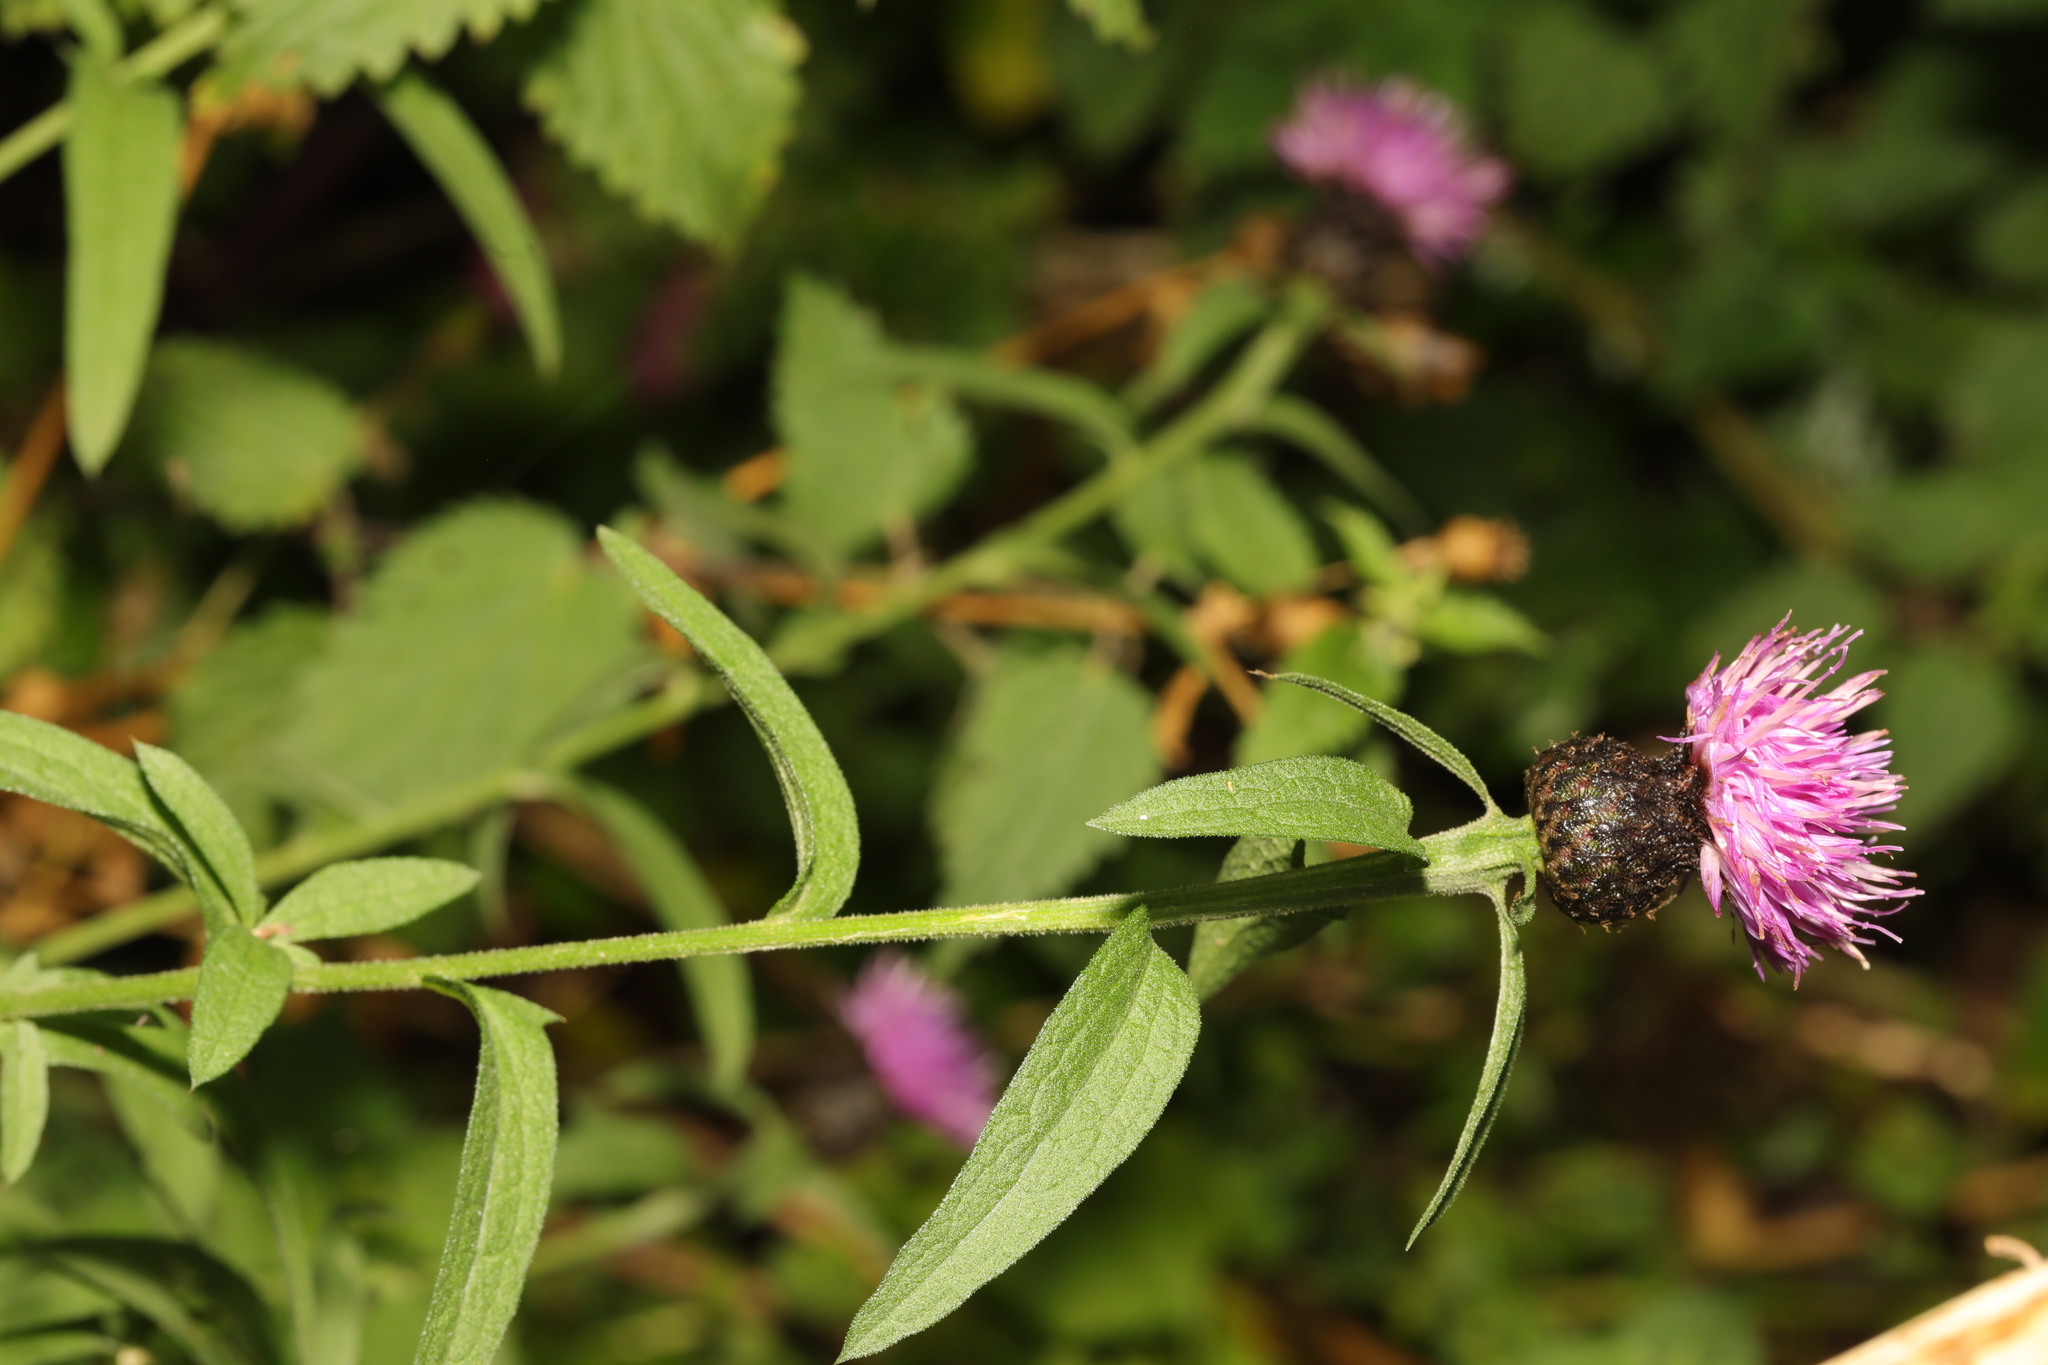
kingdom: Plantae
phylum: Tracheophyta
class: Magnoliopsida
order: Asterales
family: Asteraceae
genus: Centaurea
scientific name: Centaurea nigra
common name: Lesser knapweed
